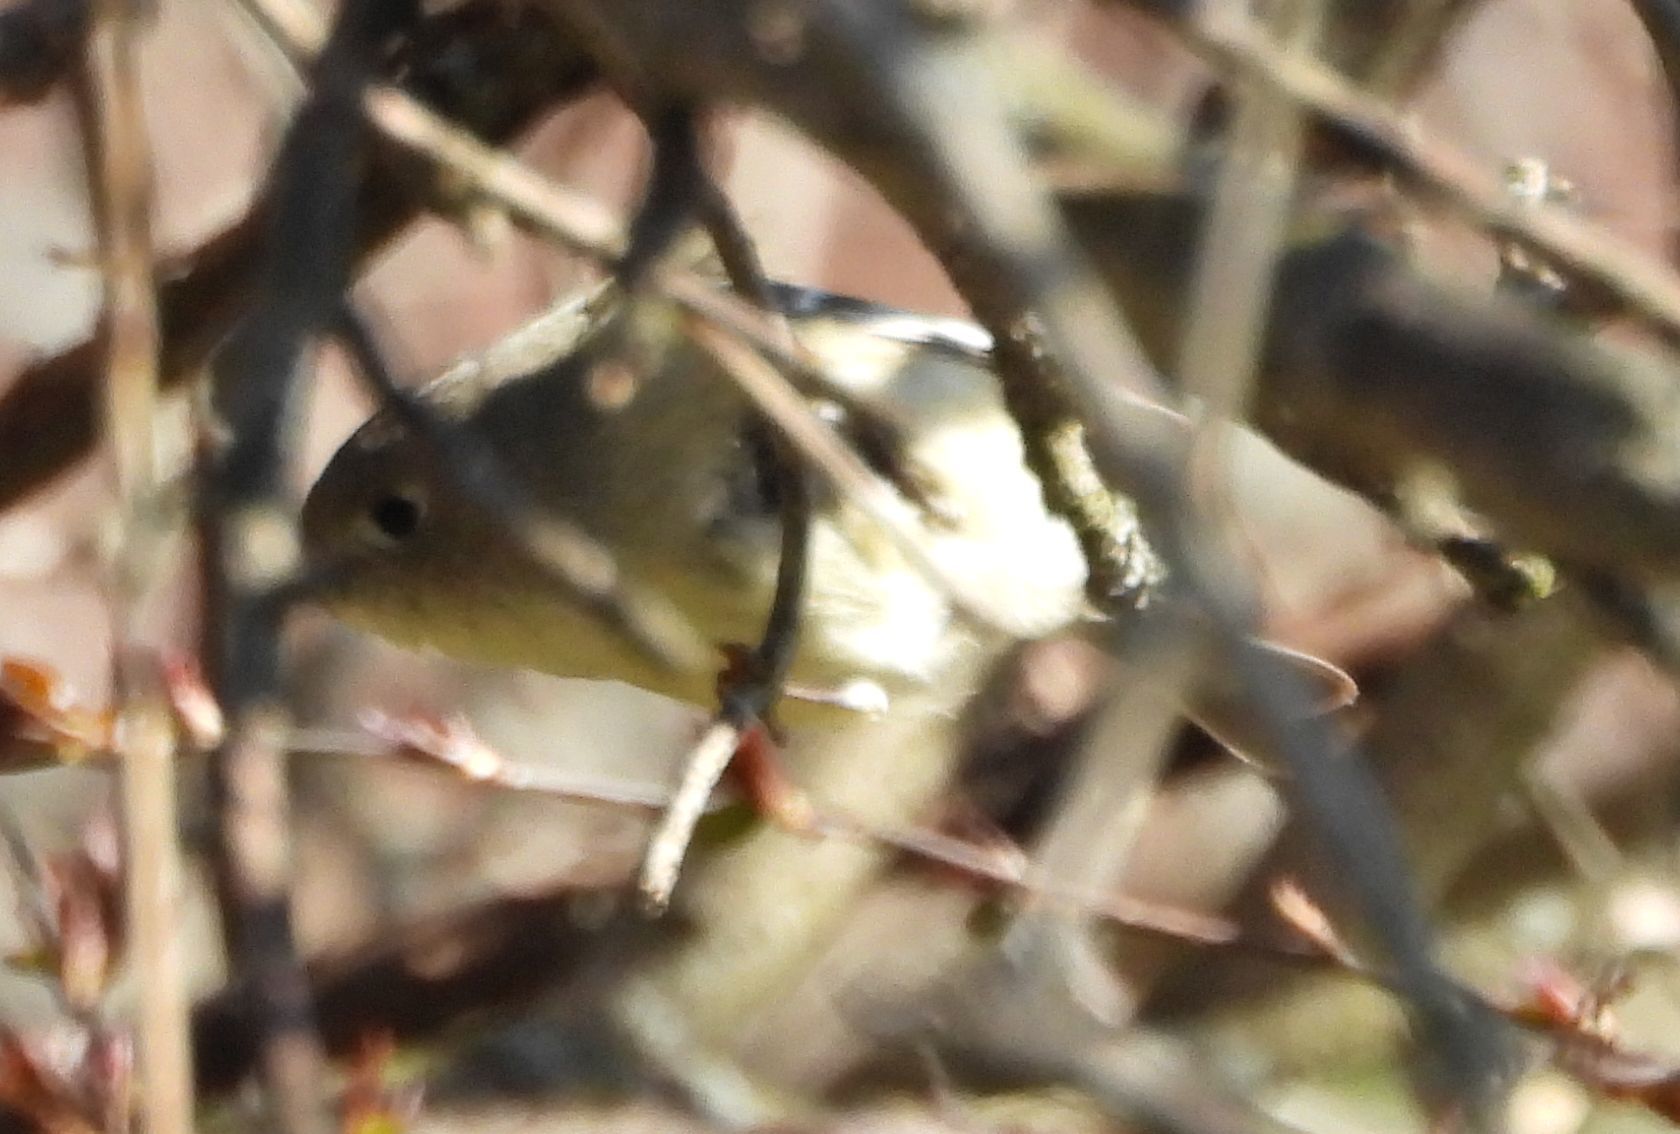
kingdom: Animalia
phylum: Chordata
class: Aves
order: Passeriformes
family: Regulidae
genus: Regulus
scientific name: Regulus calendula
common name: Ruby-crowned kinglet
